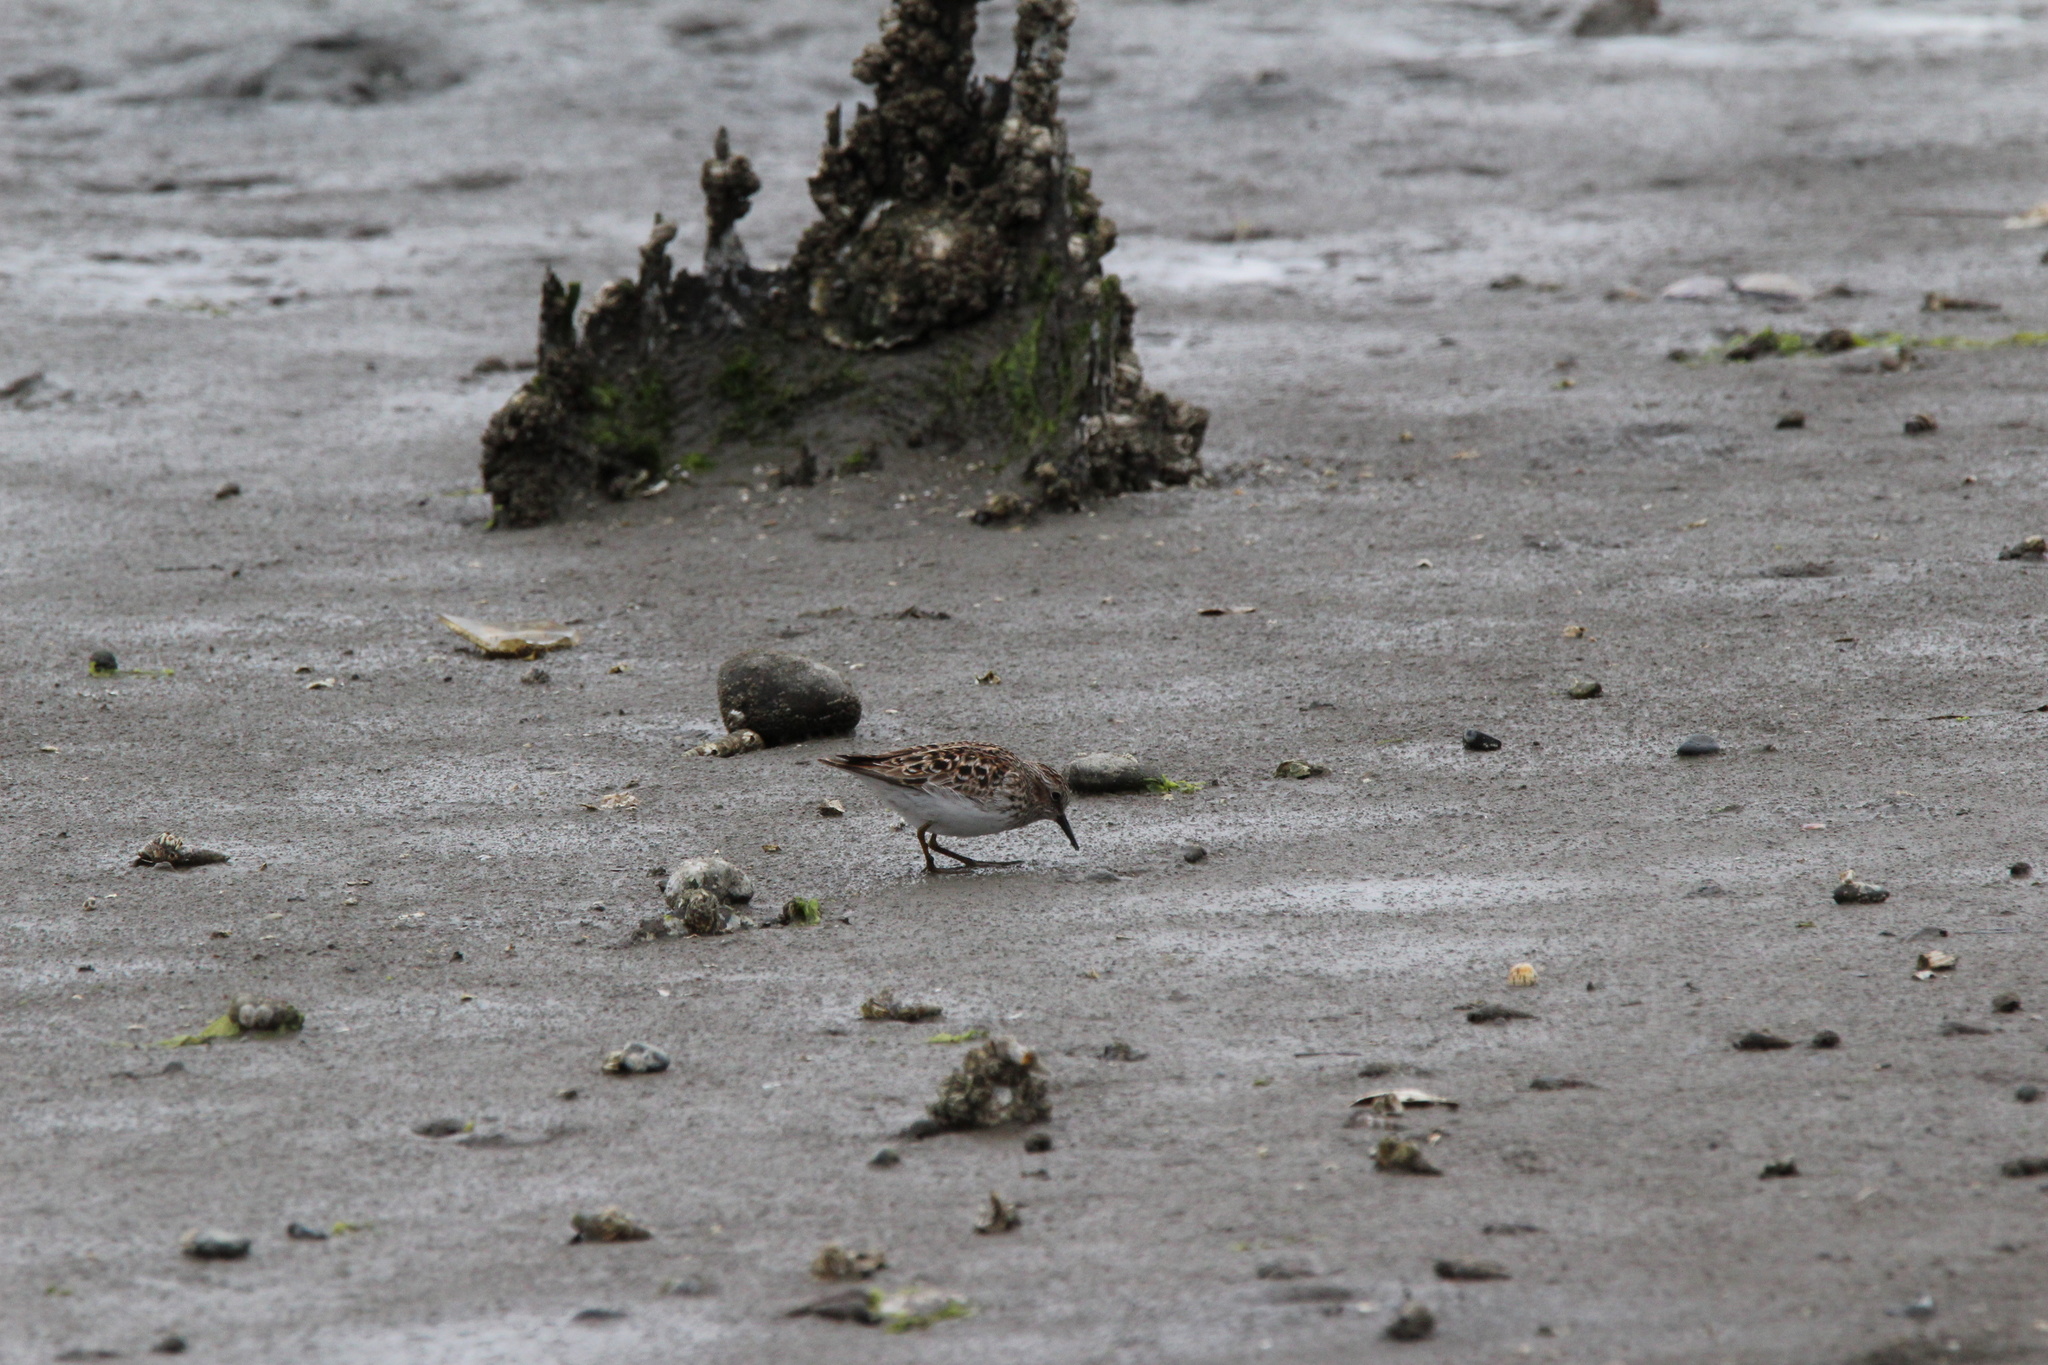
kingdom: Animalia
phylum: Chordata
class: Aves
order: Charadriiformes
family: Scolopacidae
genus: Calidris
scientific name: Calidris minutilla
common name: Least sandpiper
